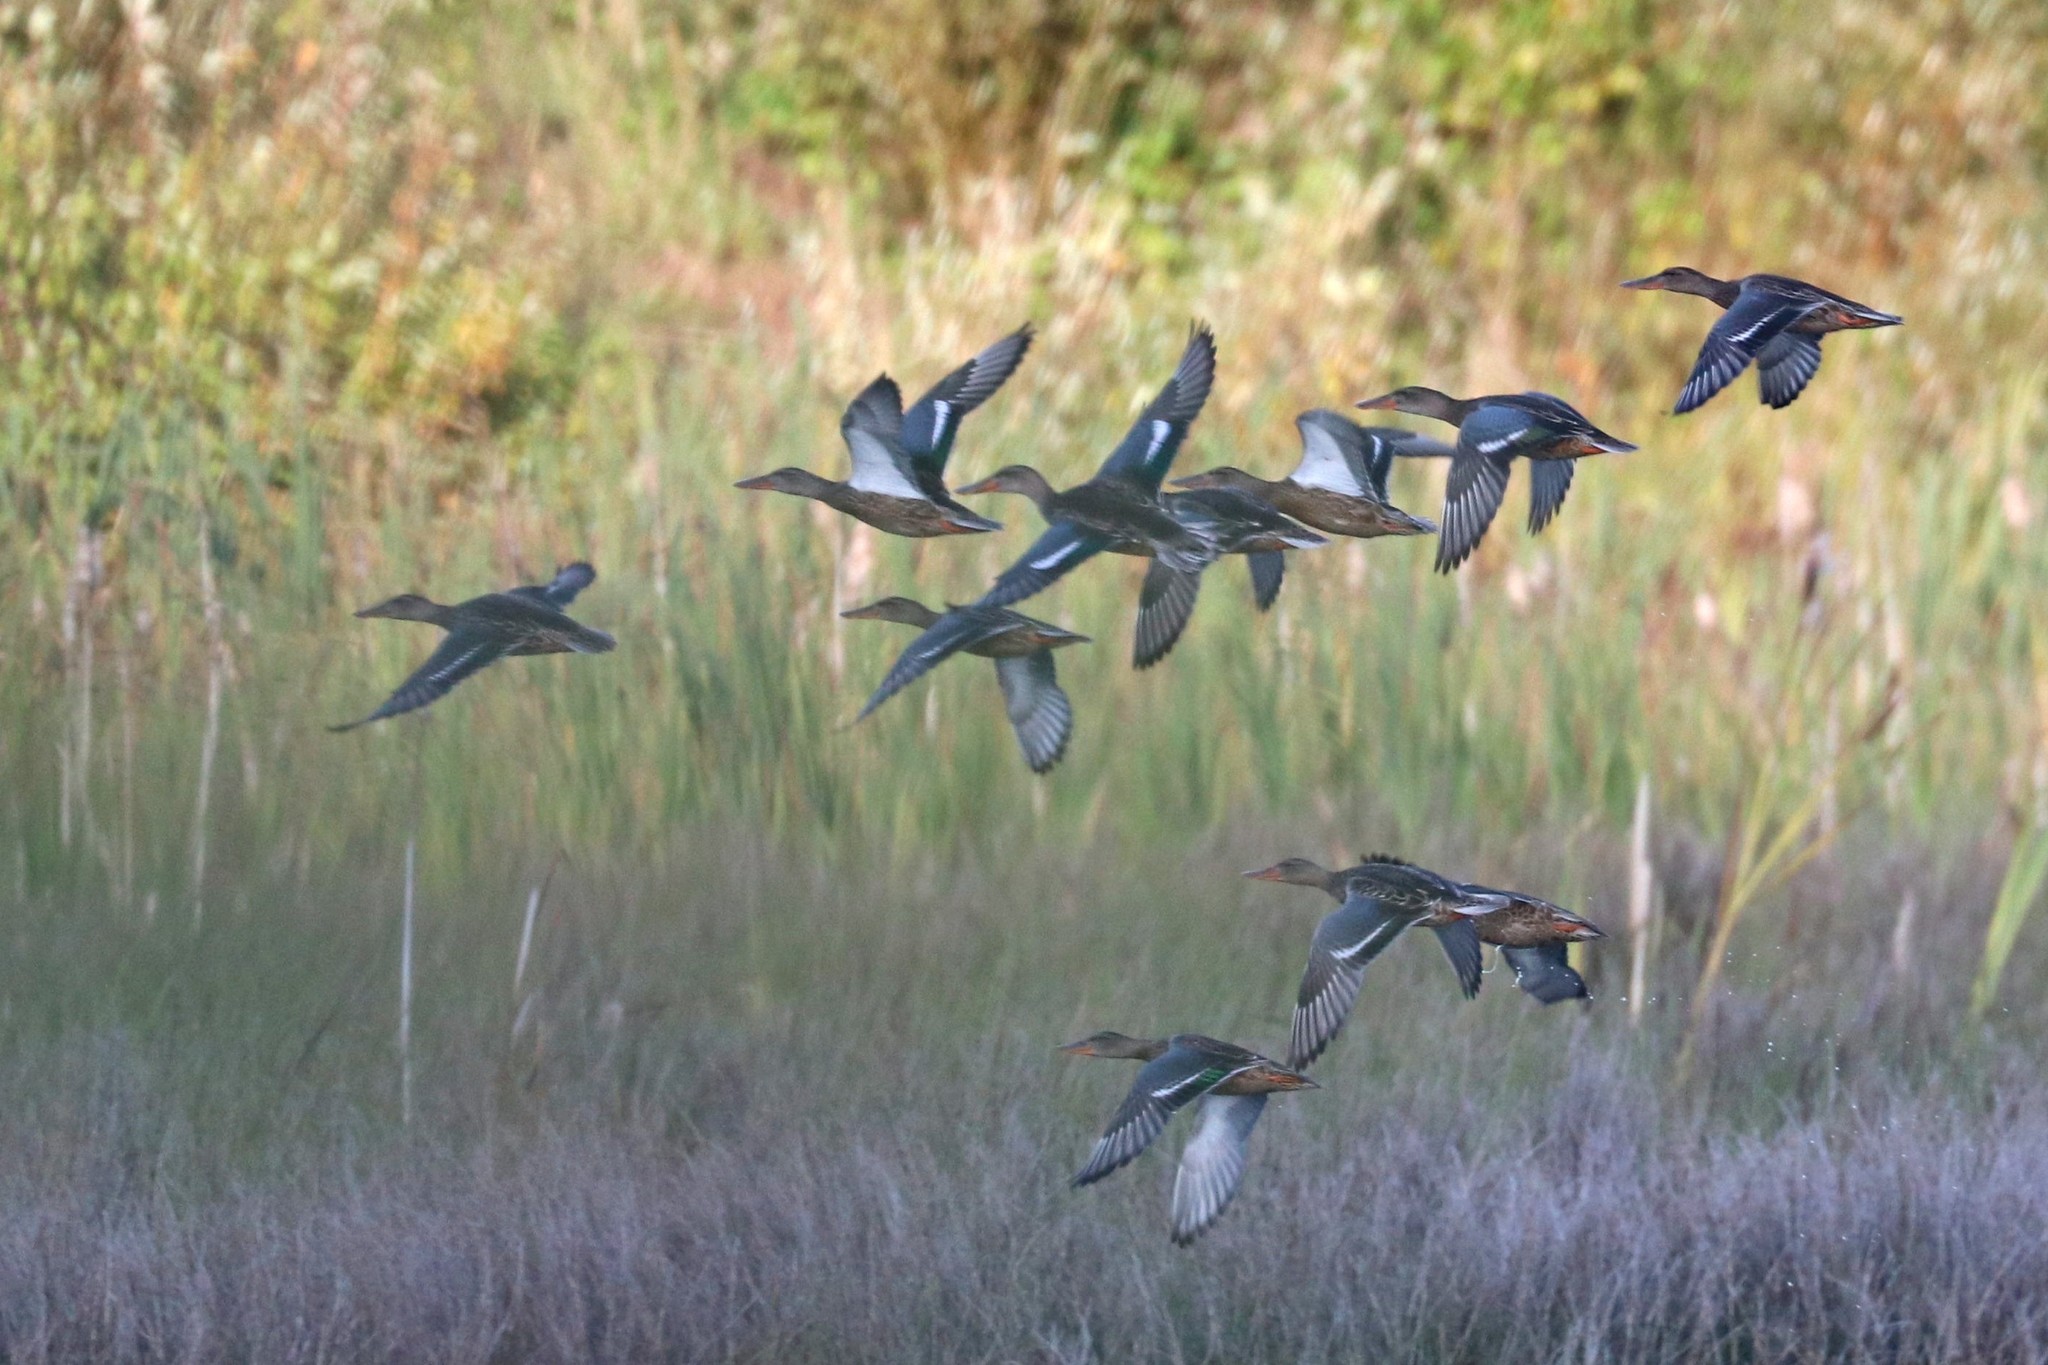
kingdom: Animalia
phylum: Chordata
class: Aves
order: Anseriformes
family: Anatidae
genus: Spatula
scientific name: Spatula clypeata
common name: Northern shoveler
